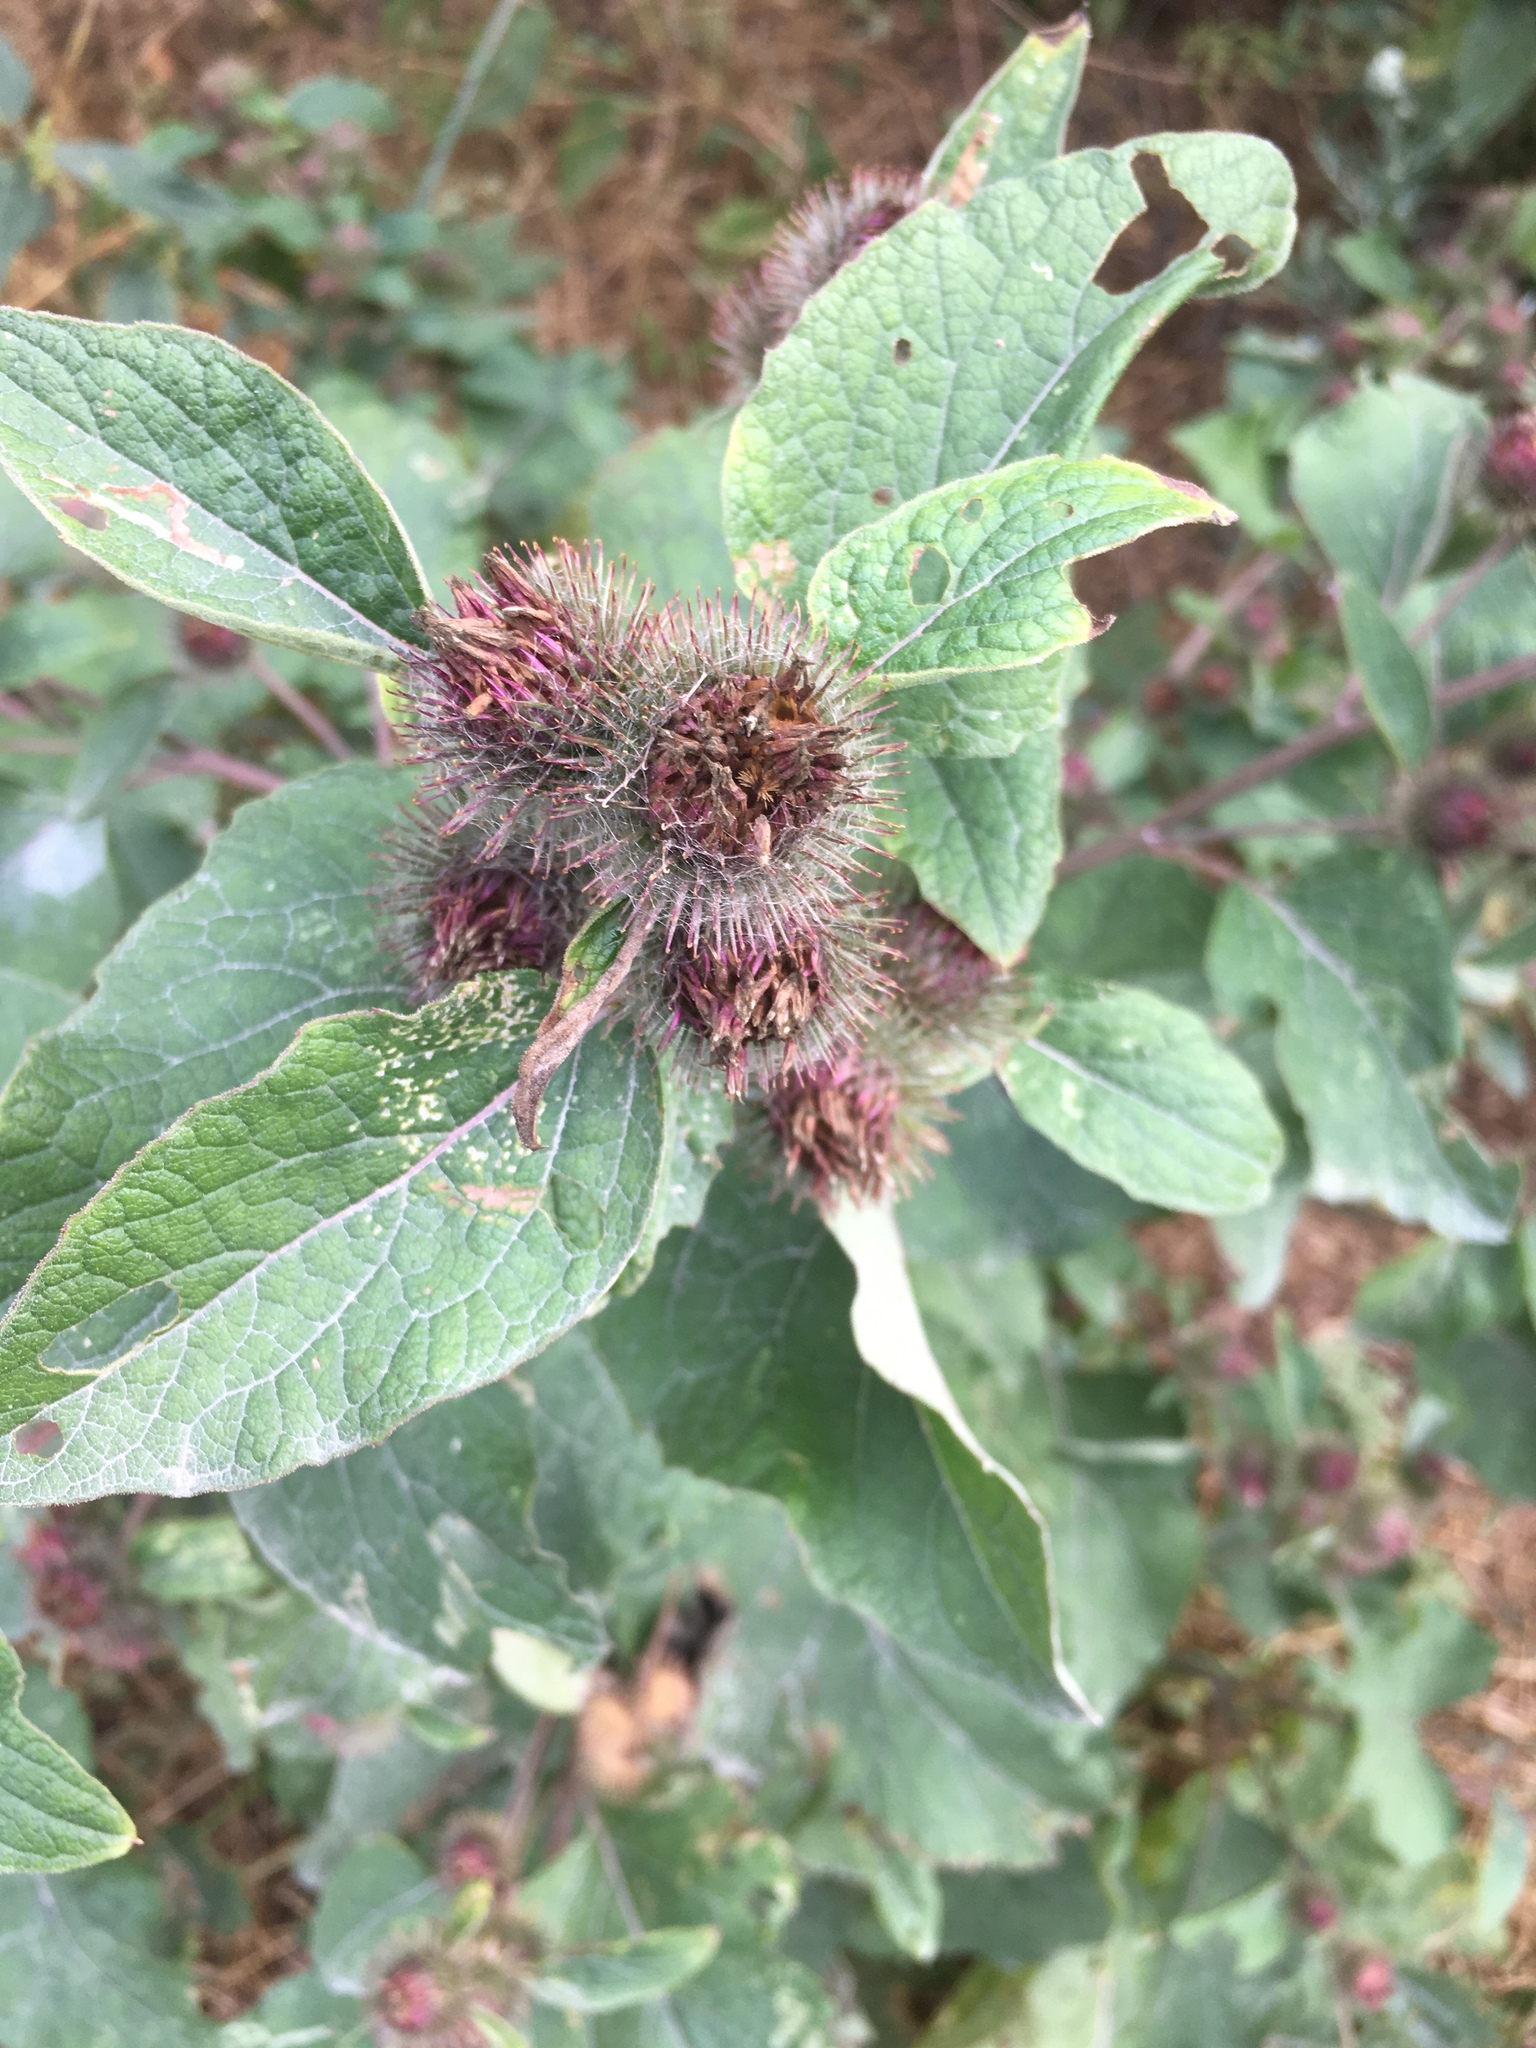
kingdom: Plantae
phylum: Tracheophyta
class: Magnoliopsida
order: Asterales
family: Asteraceae
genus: Arctium
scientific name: Arctium minus
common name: Lesser burdock
